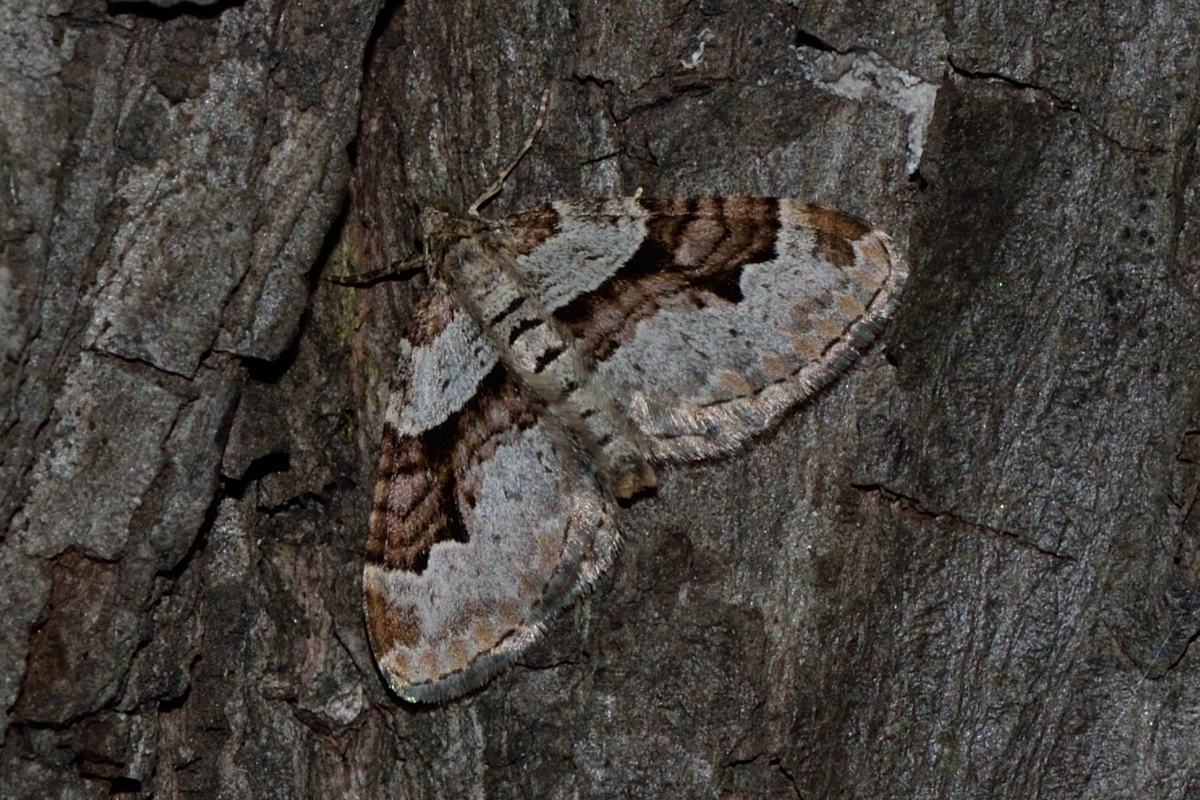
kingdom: Animalia
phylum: Arthropoda
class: Insecta
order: Lepidoptera
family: Geometridae
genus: Xanthorhoe
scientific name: Xanthorhoe designata
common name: Flame carpet
